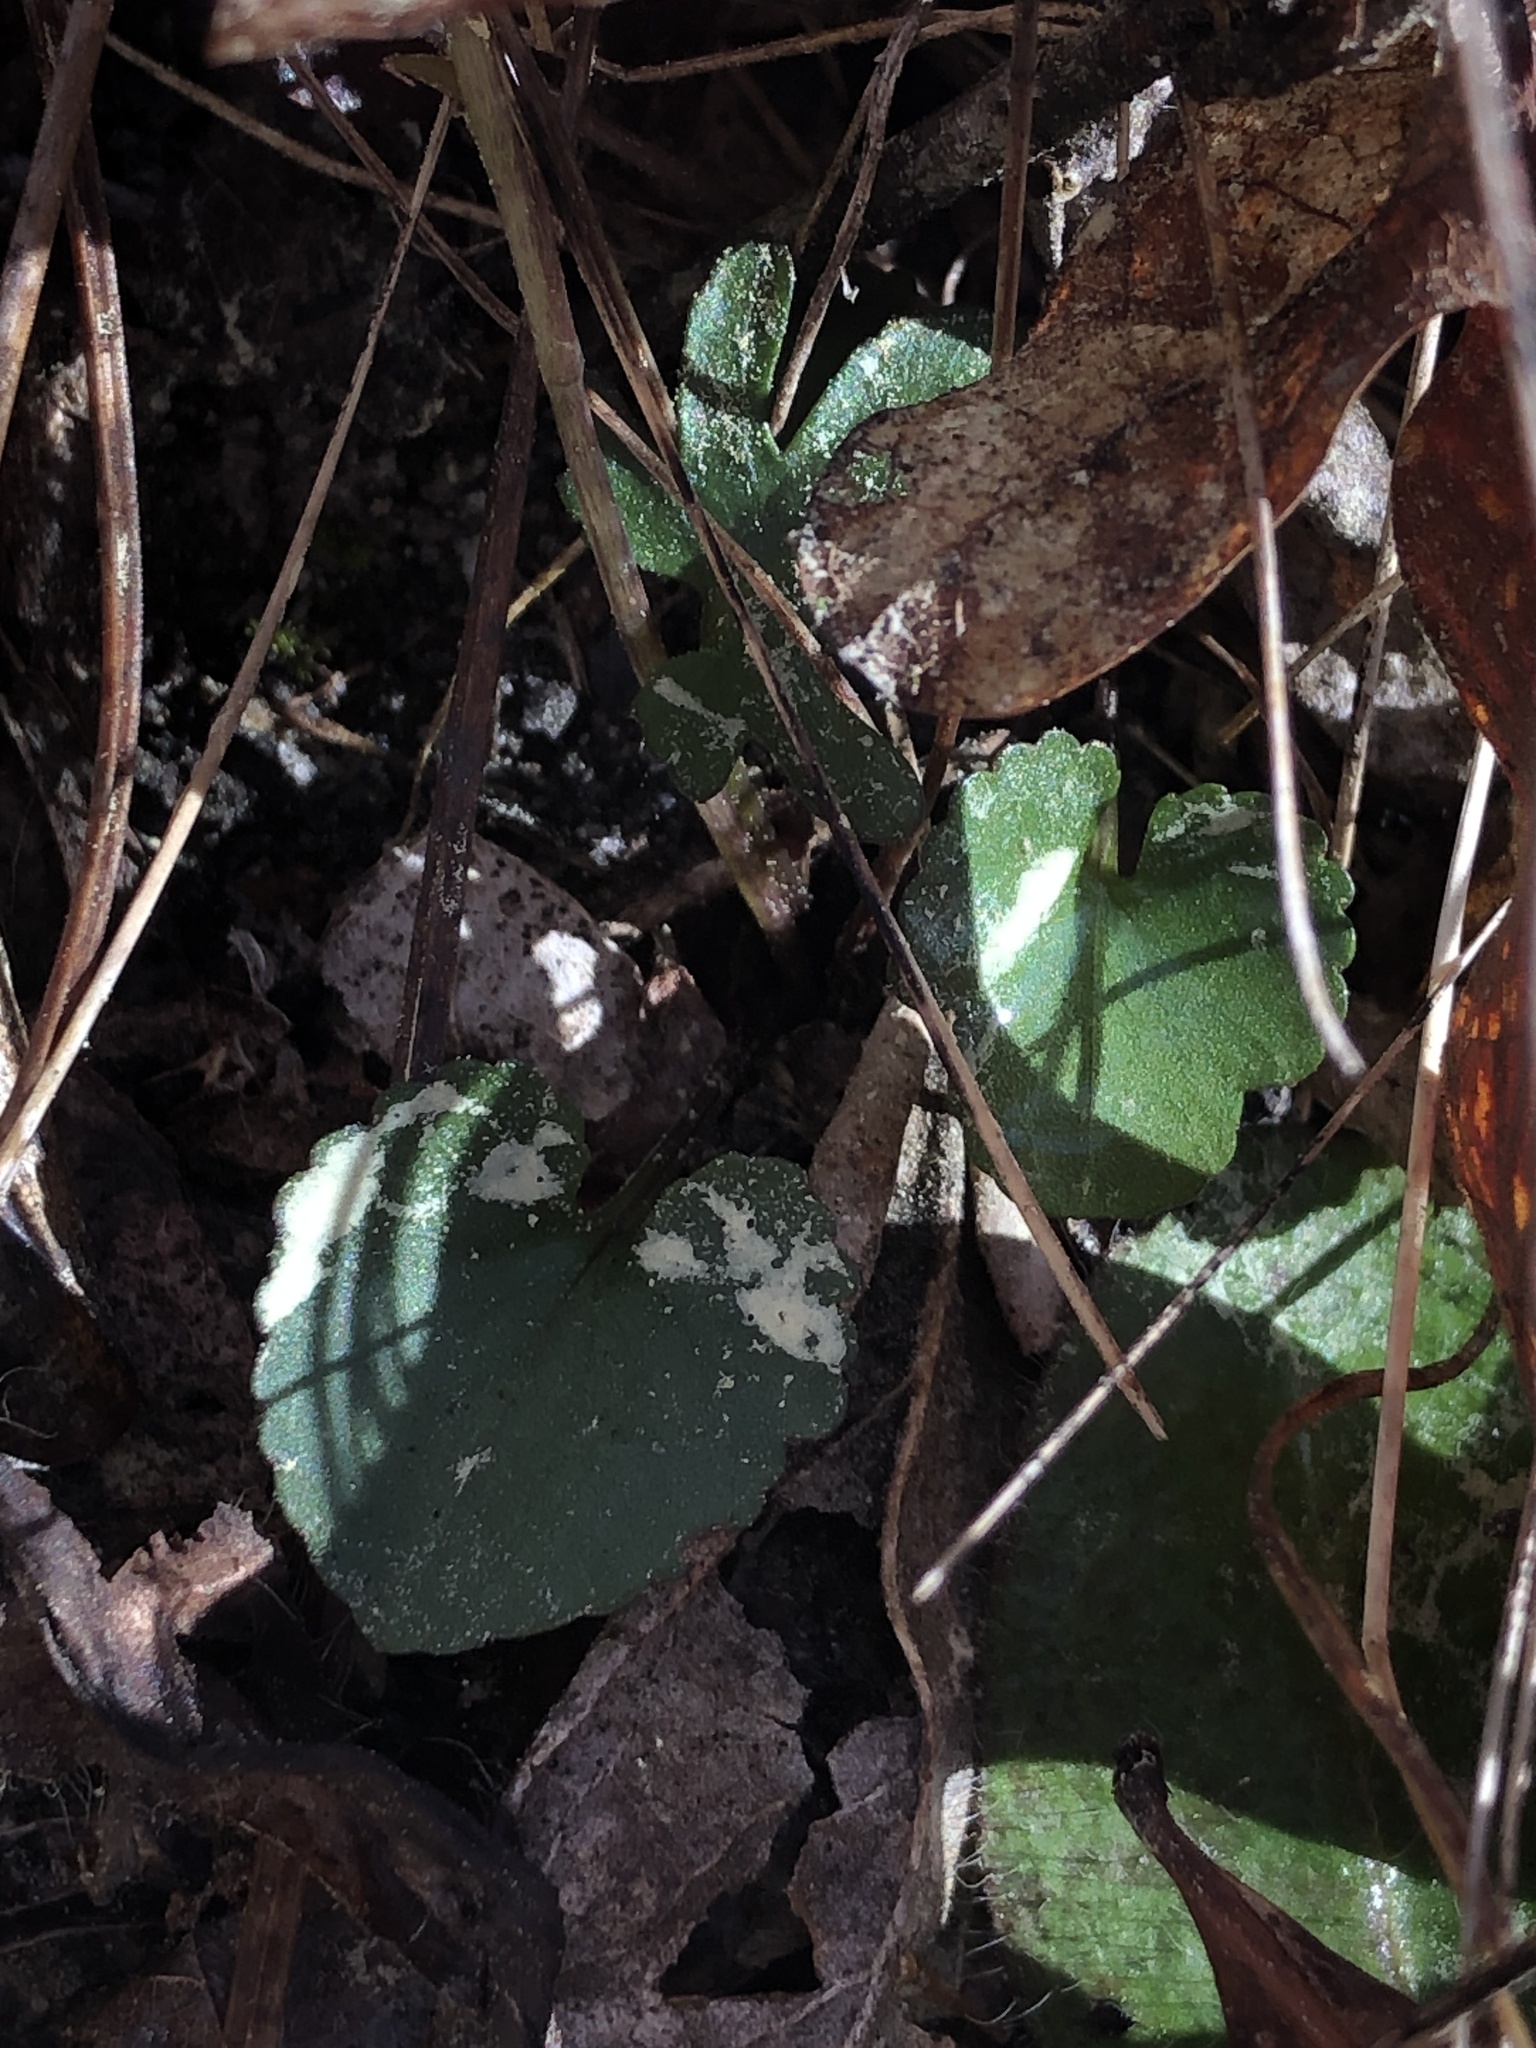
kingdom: Plantae
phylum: Tracheophyta
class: Magnoliopsida
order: Malpighiales
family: Violaceae
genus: Viola
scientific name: Viola septemloba
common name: Southern coast violet
